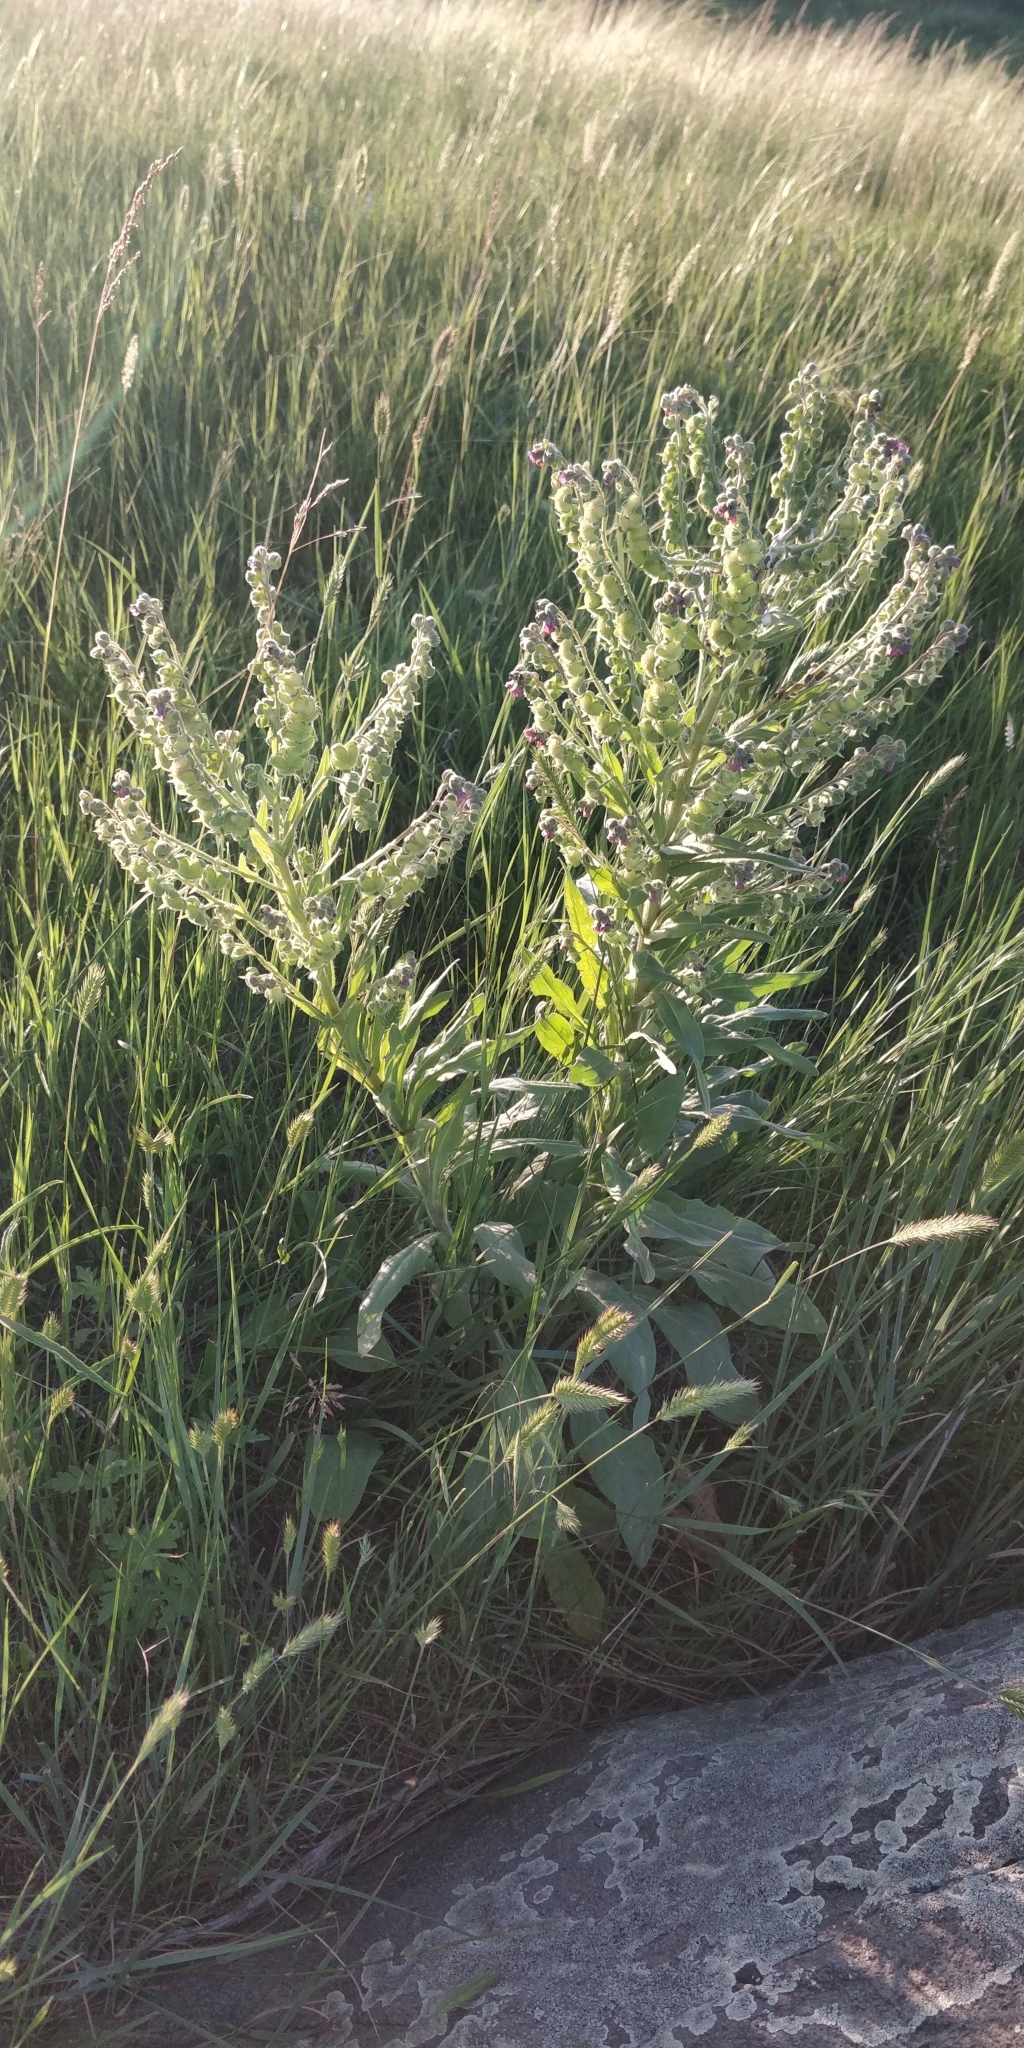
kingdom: Plantae
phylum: Tracheophyta
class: Magnoliopsida
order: Boraginales
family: Boraginaceae
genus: Cynoglossum
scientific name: Cynoglossum officinale
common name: Hound's-tongue
